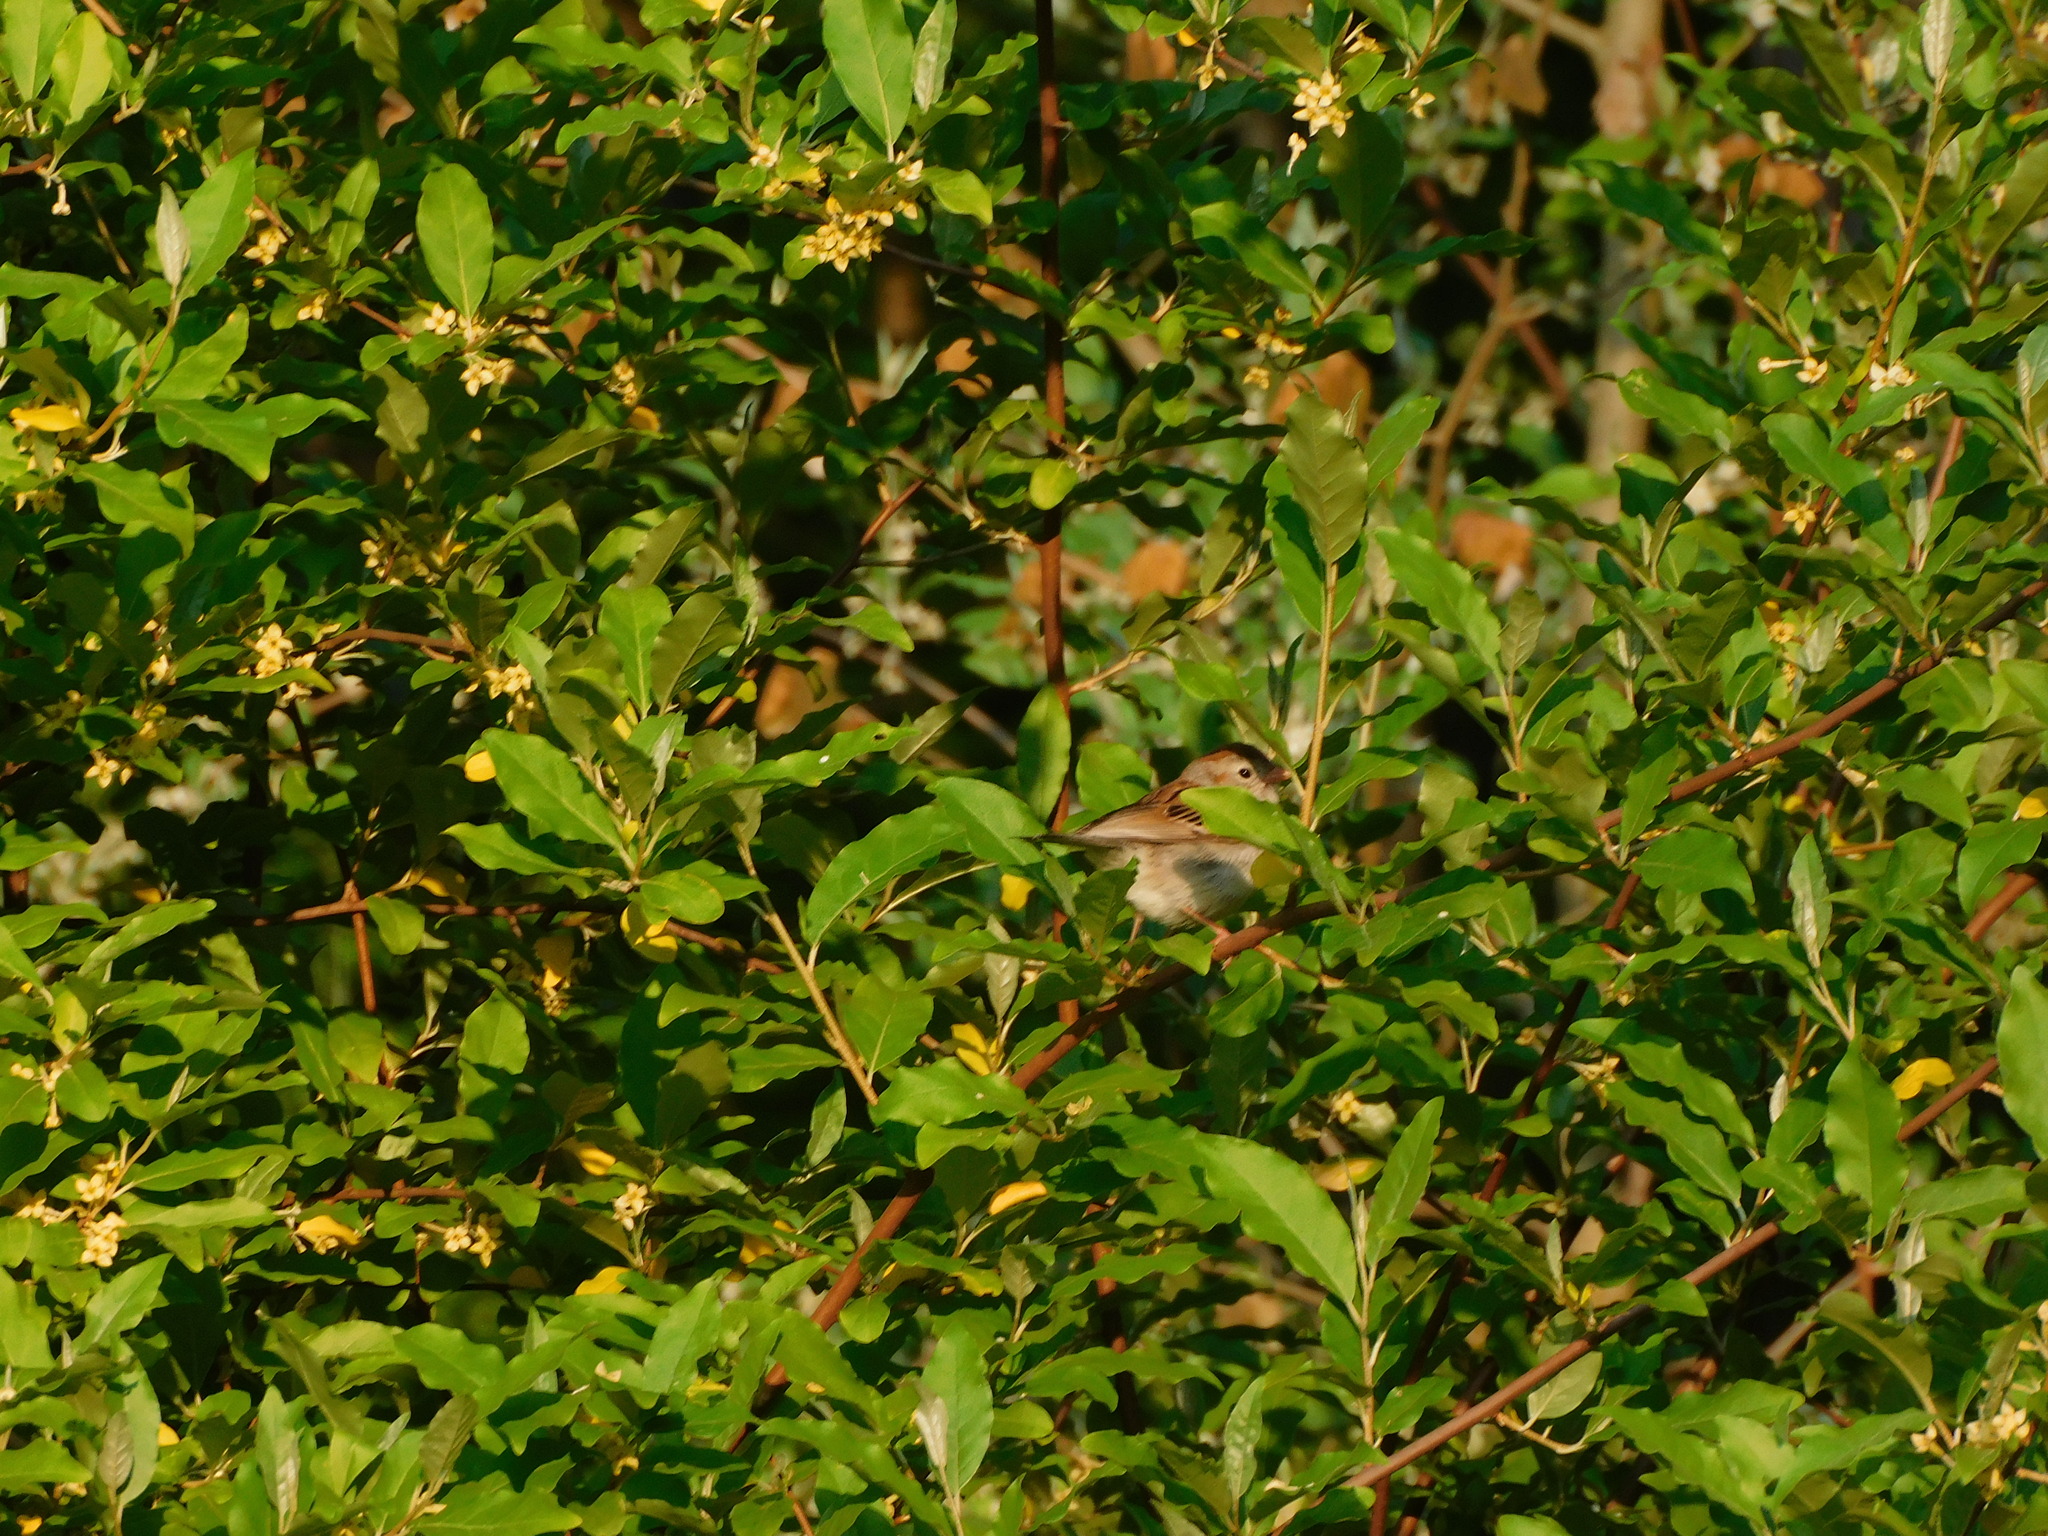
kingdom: Animalia
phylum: Chordata
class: Aves
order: Passeriformes
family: Passerellidae
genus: Spizella
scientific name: Spizella pusilla
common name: Field sparrow
